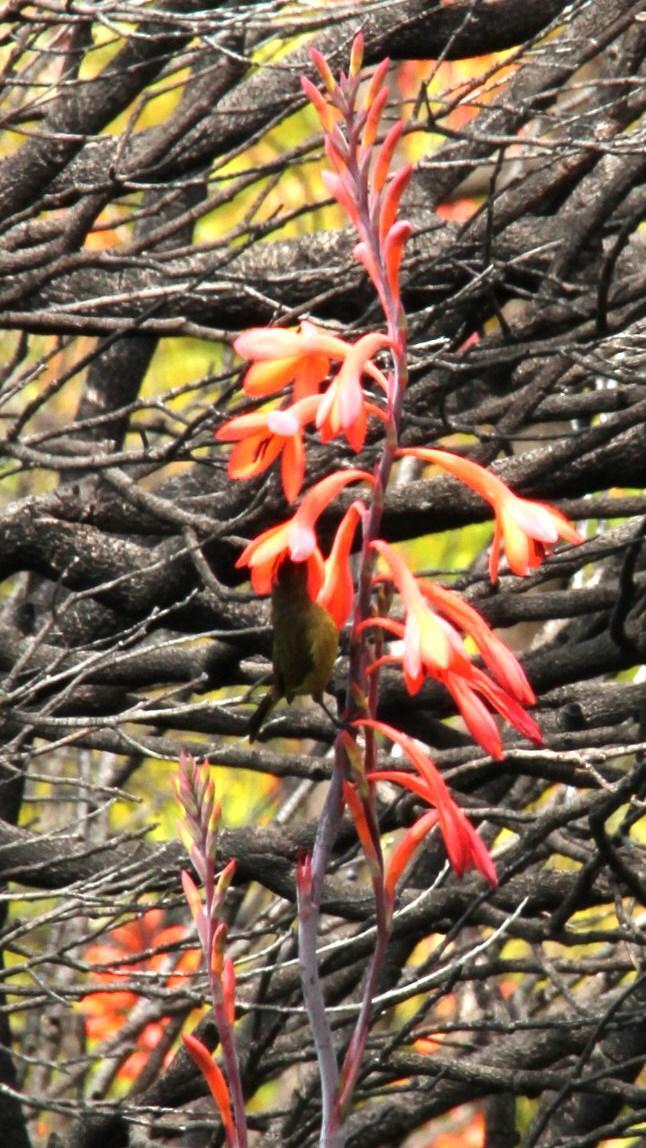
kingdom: Animalia
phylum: Chordata
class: Aves
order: Passeriformes
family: Nectariniidae
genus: Anthobaphes
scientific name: Anthobaphes violacea
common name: Orange-breasted sunbird
